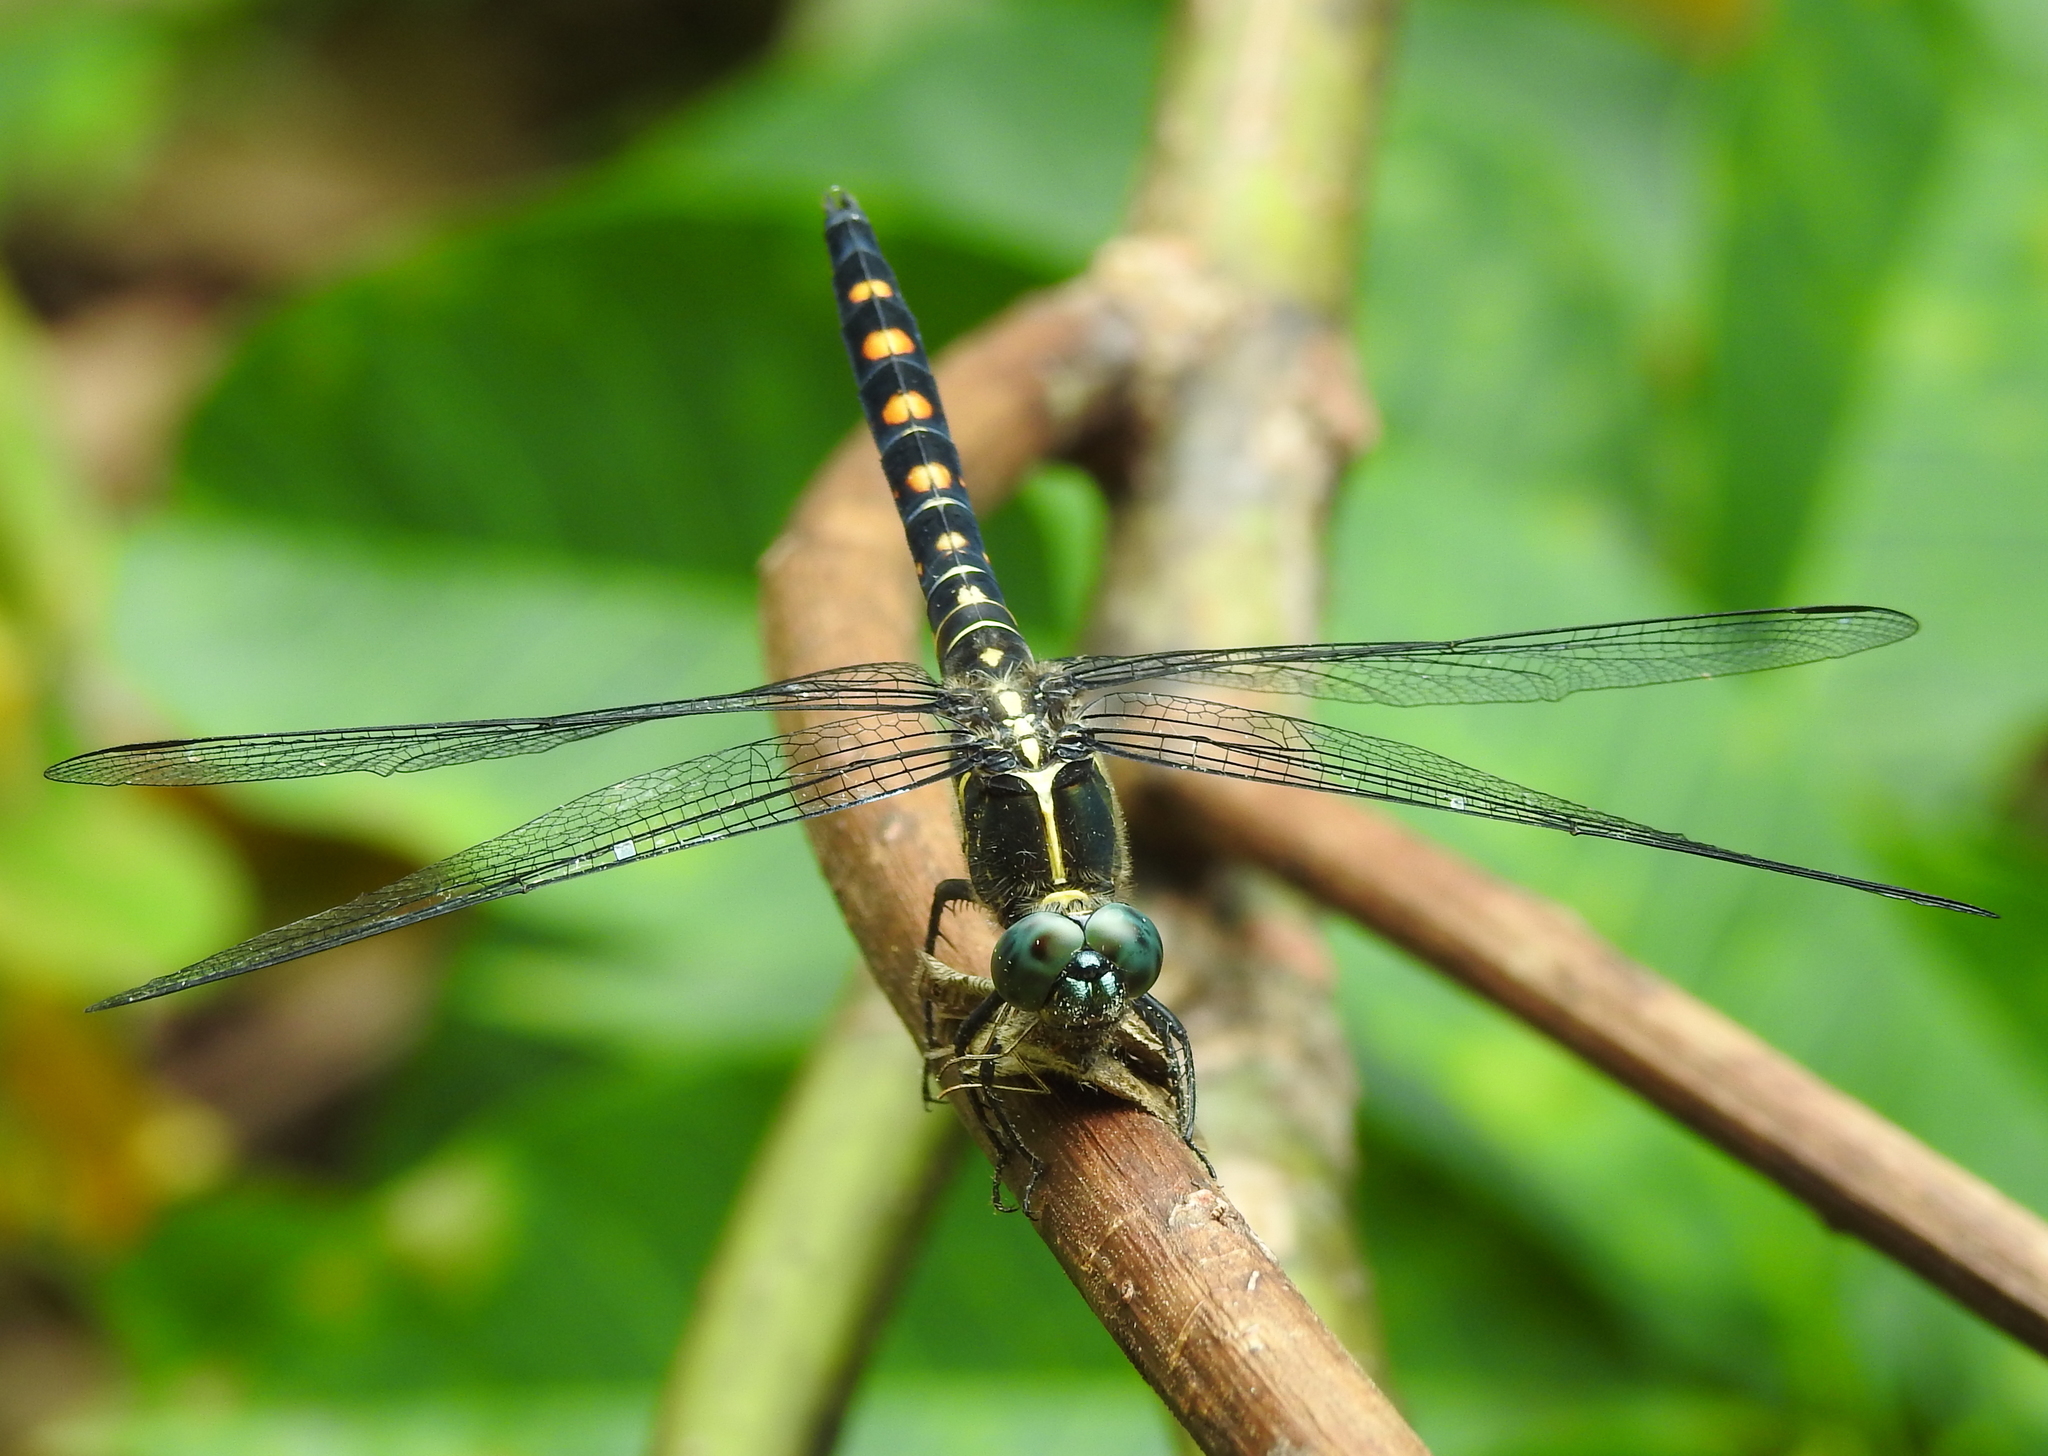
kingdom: Animalia
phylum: Arthropoda
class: Insecta
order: Odonata
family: Libellulidae
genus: Onychothemis
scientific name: Onychothemis testacea
